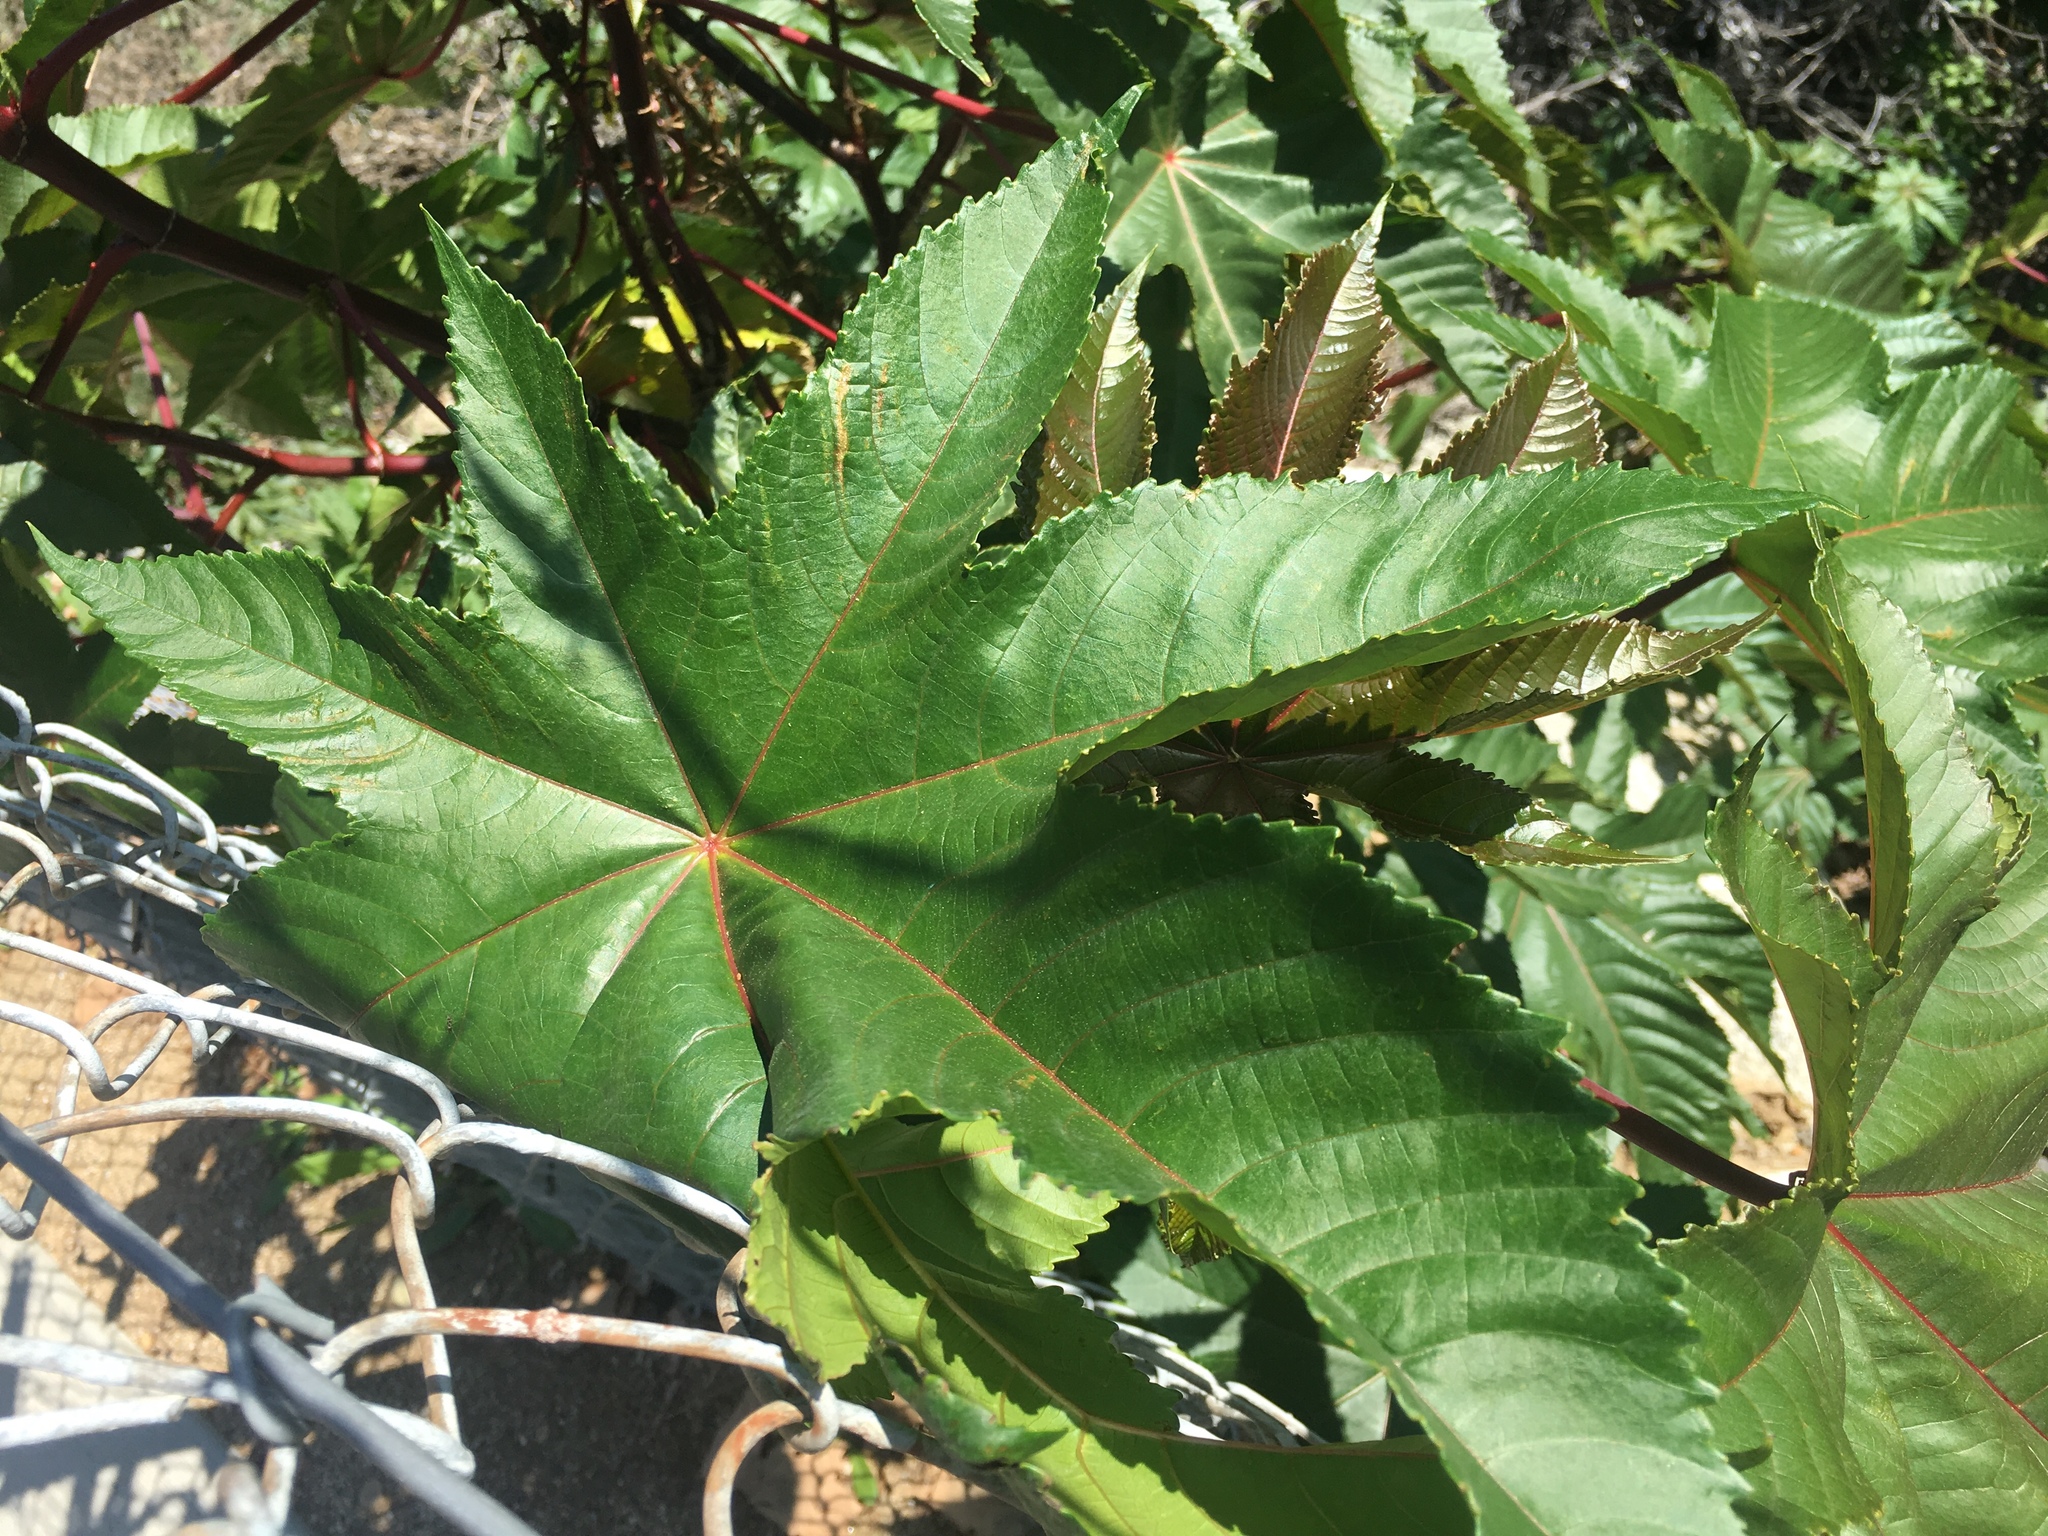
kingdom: Plantae
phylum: Tracheophyta
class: Magnoliopsida
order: Malpighiales
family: Euphorbiaceae
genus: Ricinus
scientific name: Ricinus communis
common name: Castor-oil-plant
